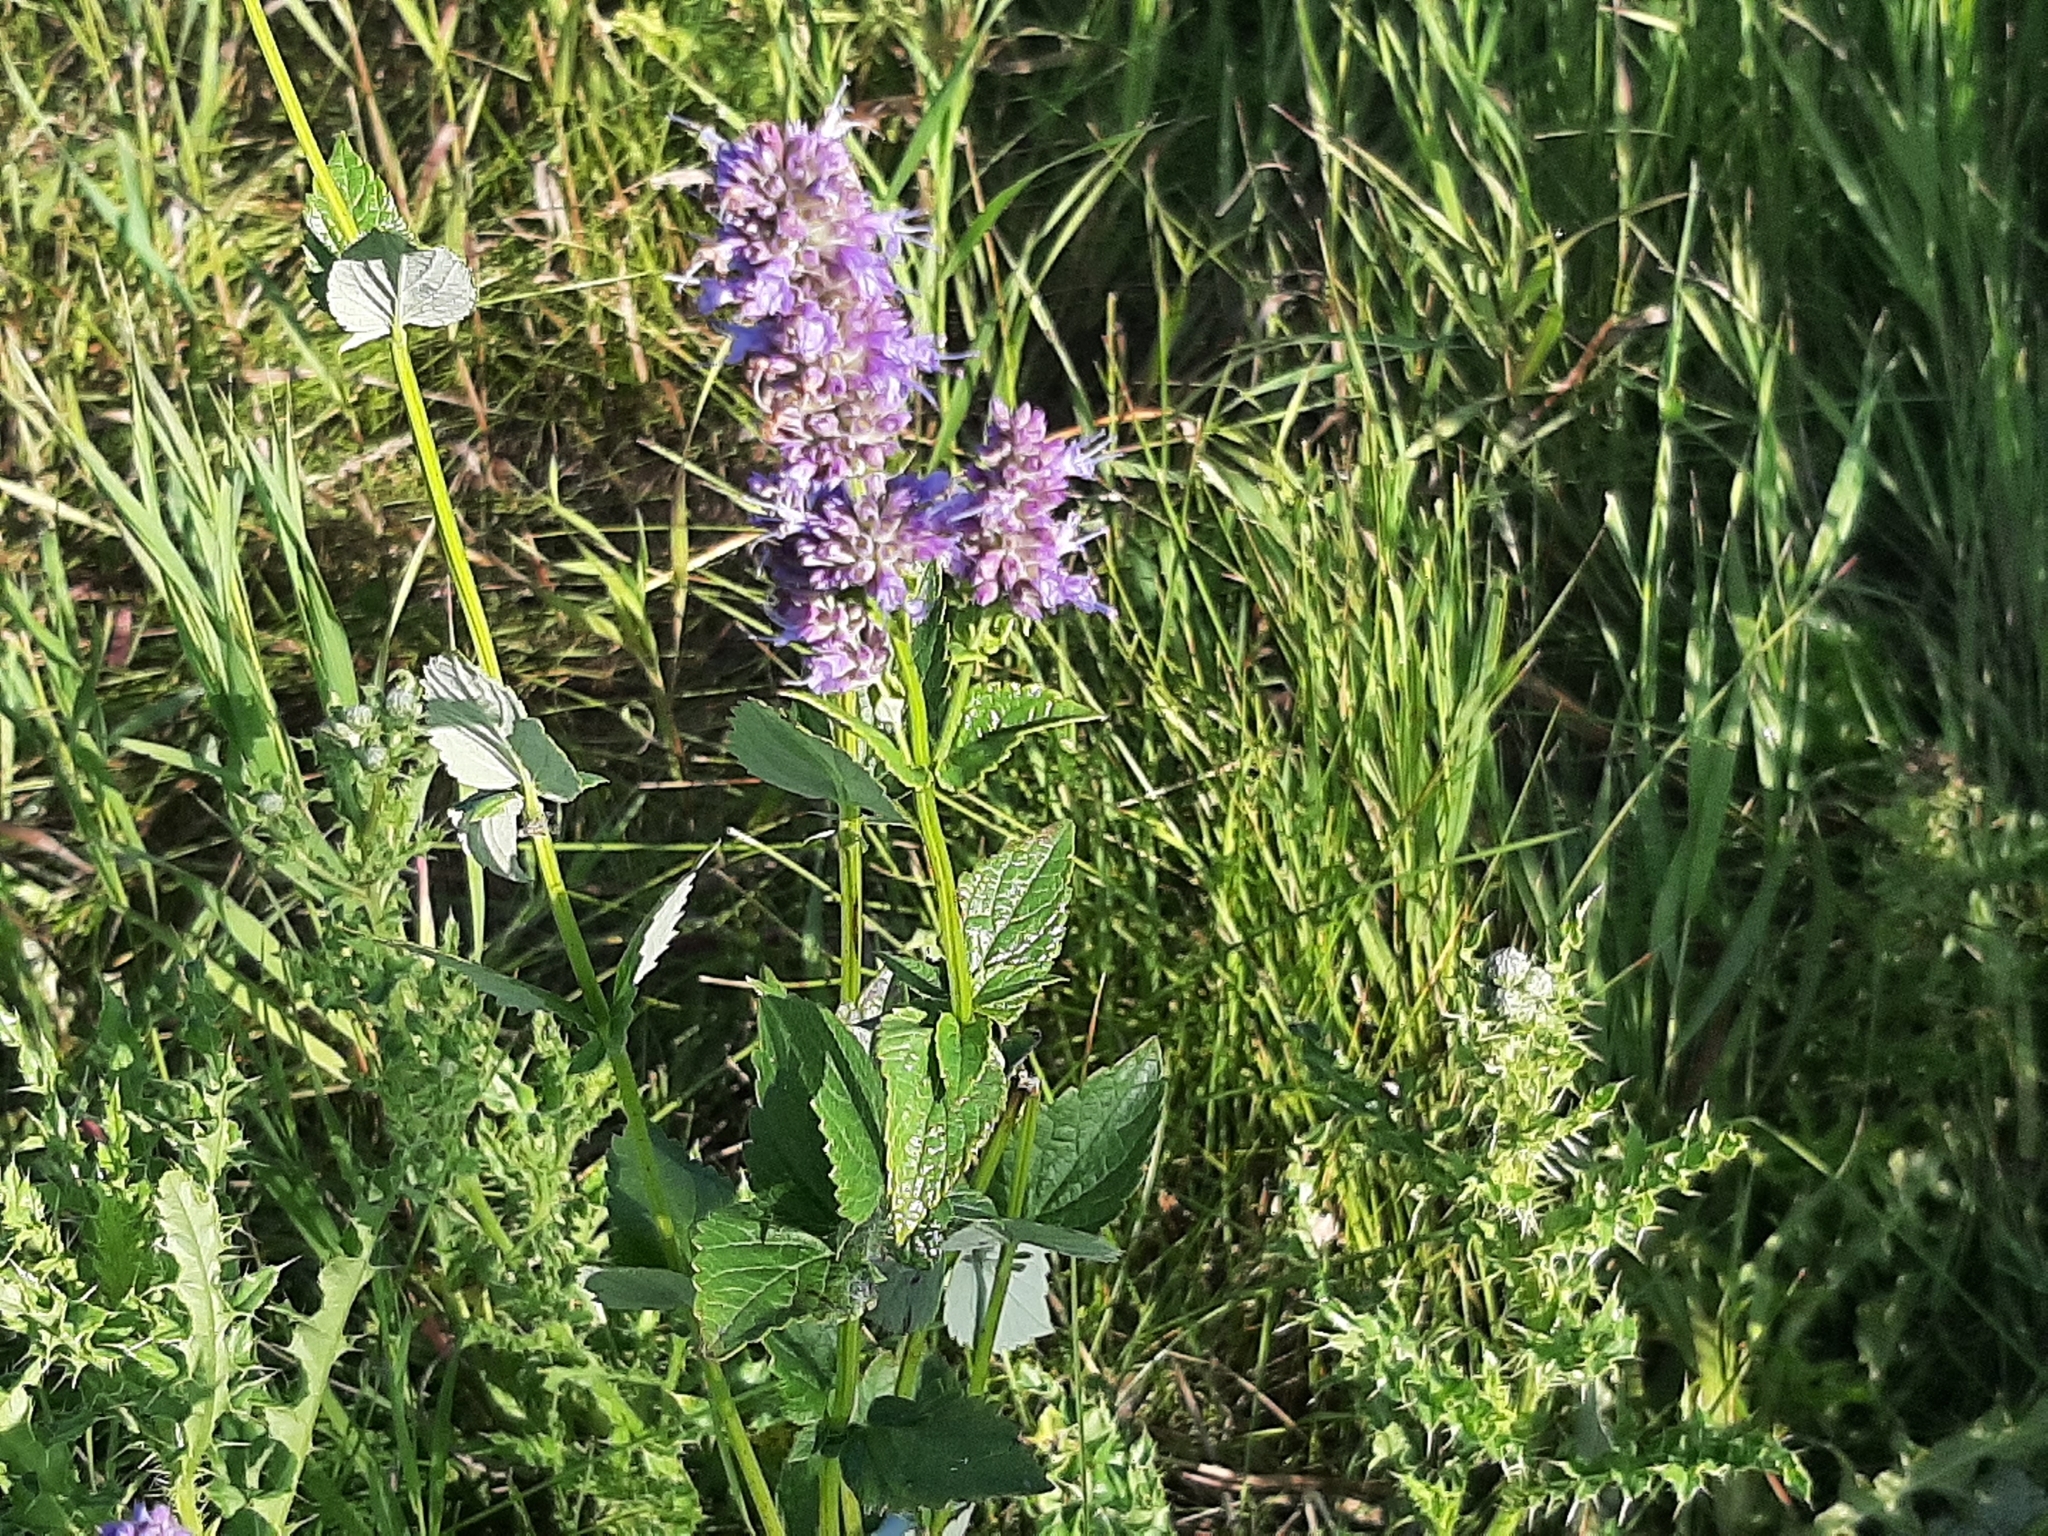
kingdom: Plantae
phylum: Tracheophyta
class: Magnoliopsida
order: Lamiales
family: Lamiaceae
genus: Agastache
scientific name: Agastache foeniculum
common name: Anise hyssop
